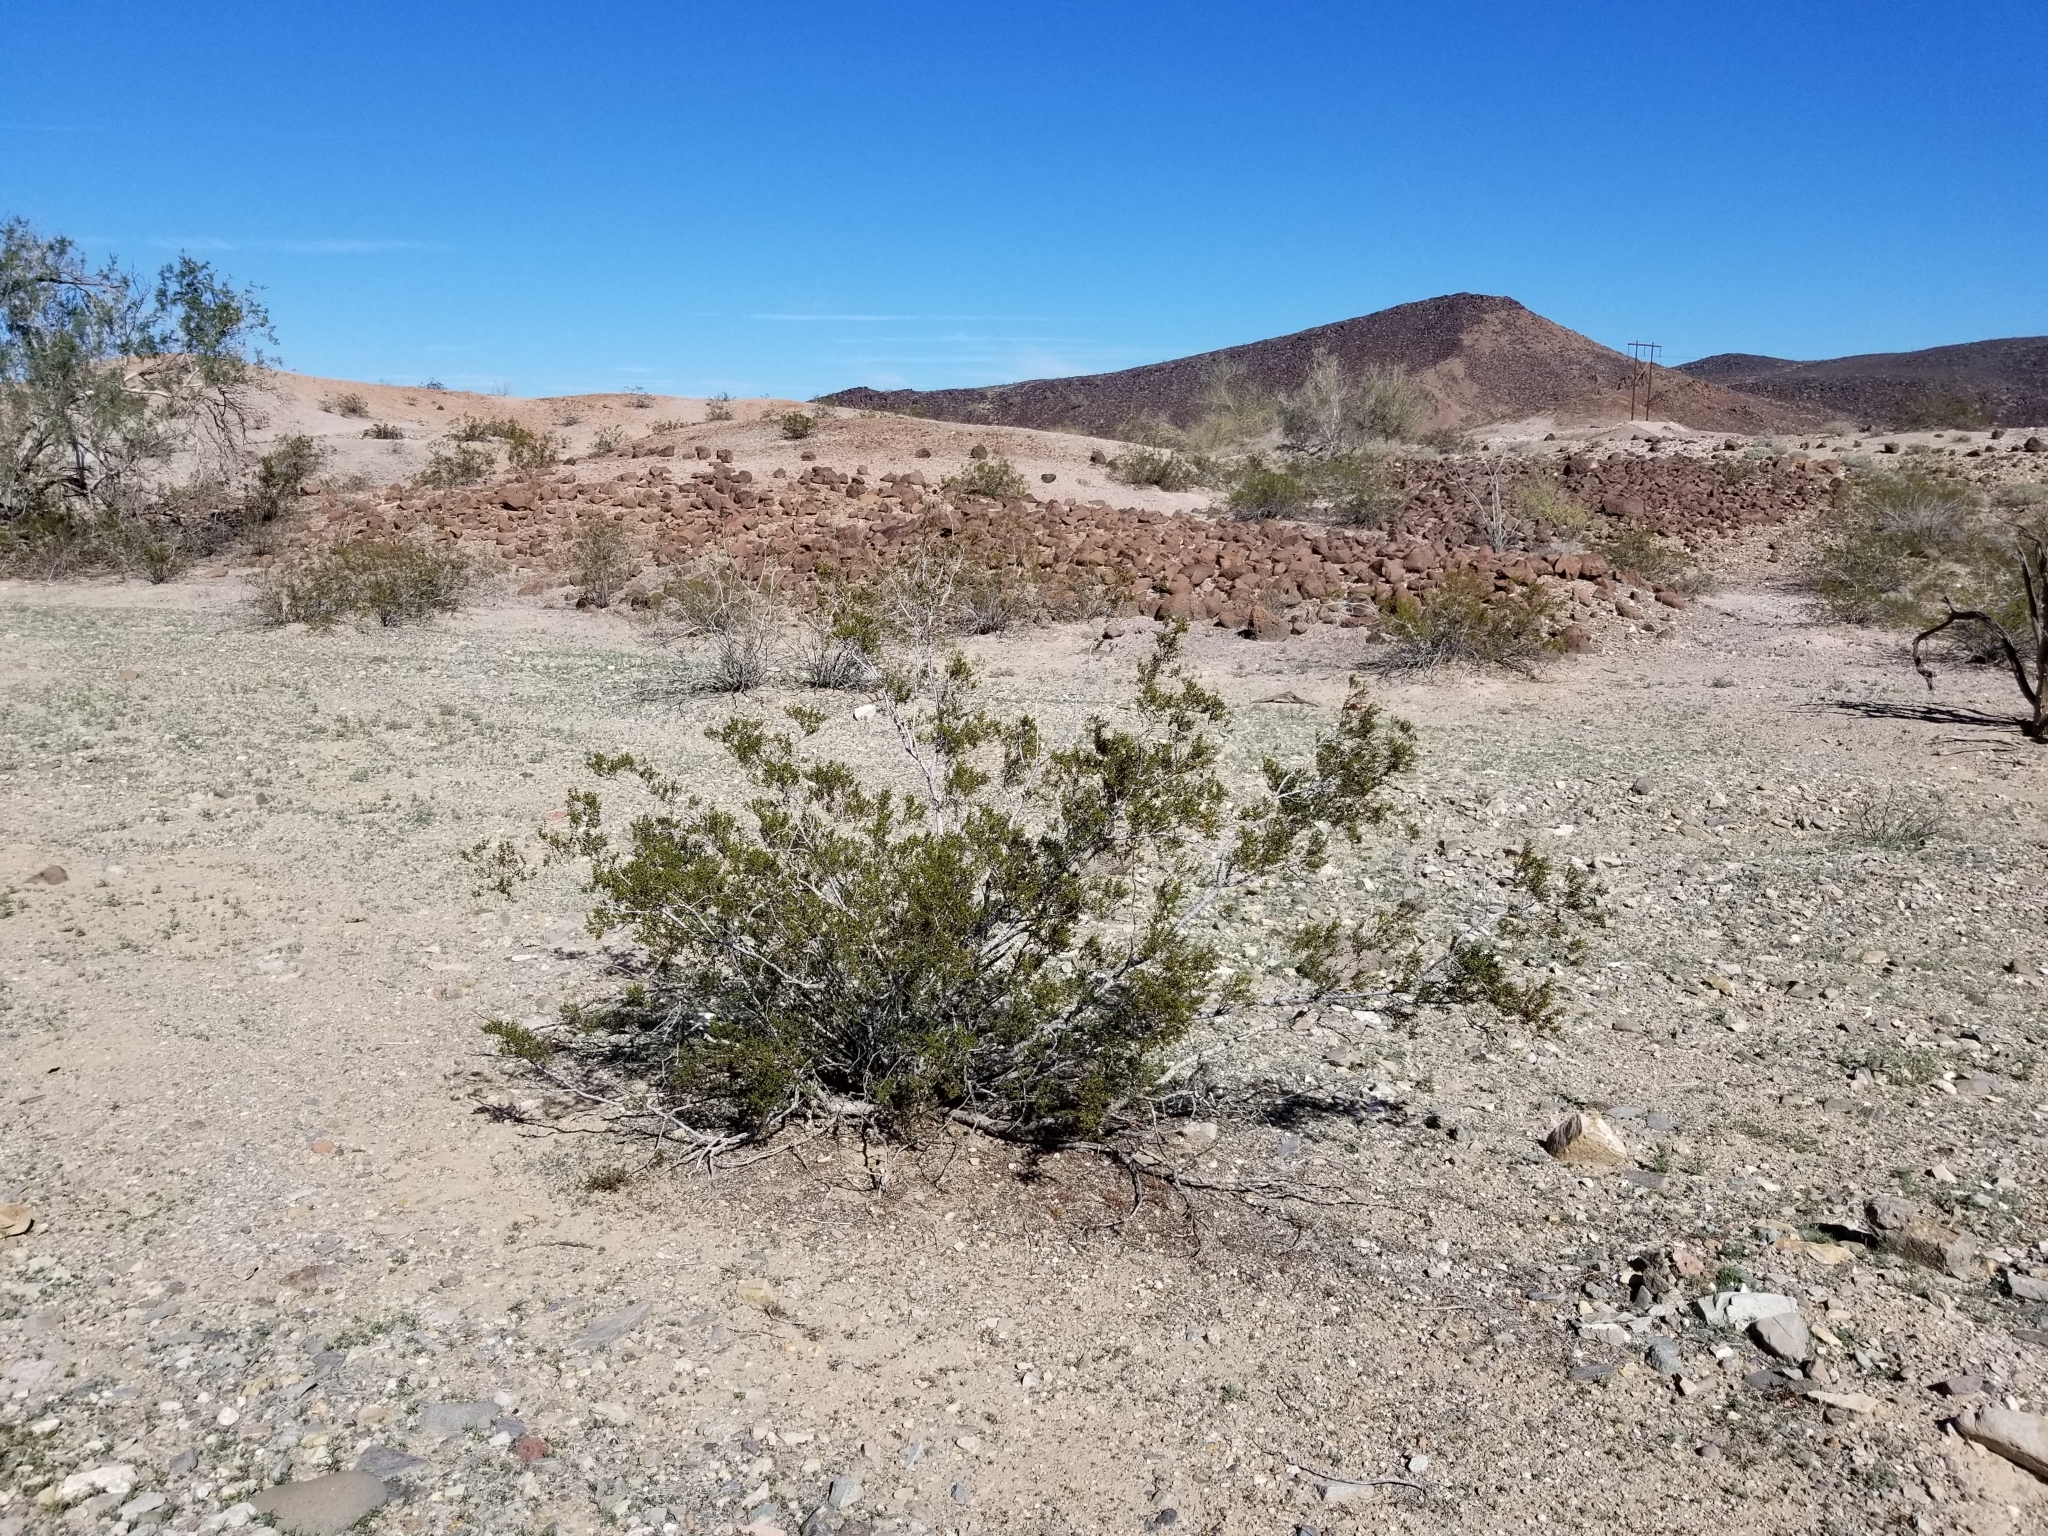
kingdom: Plantae
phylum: Tracheophyta
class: Magnoliopsida
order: Zygophyllales
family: Zygophyllaceae
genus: Larrea
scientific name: Larrea tridentata
